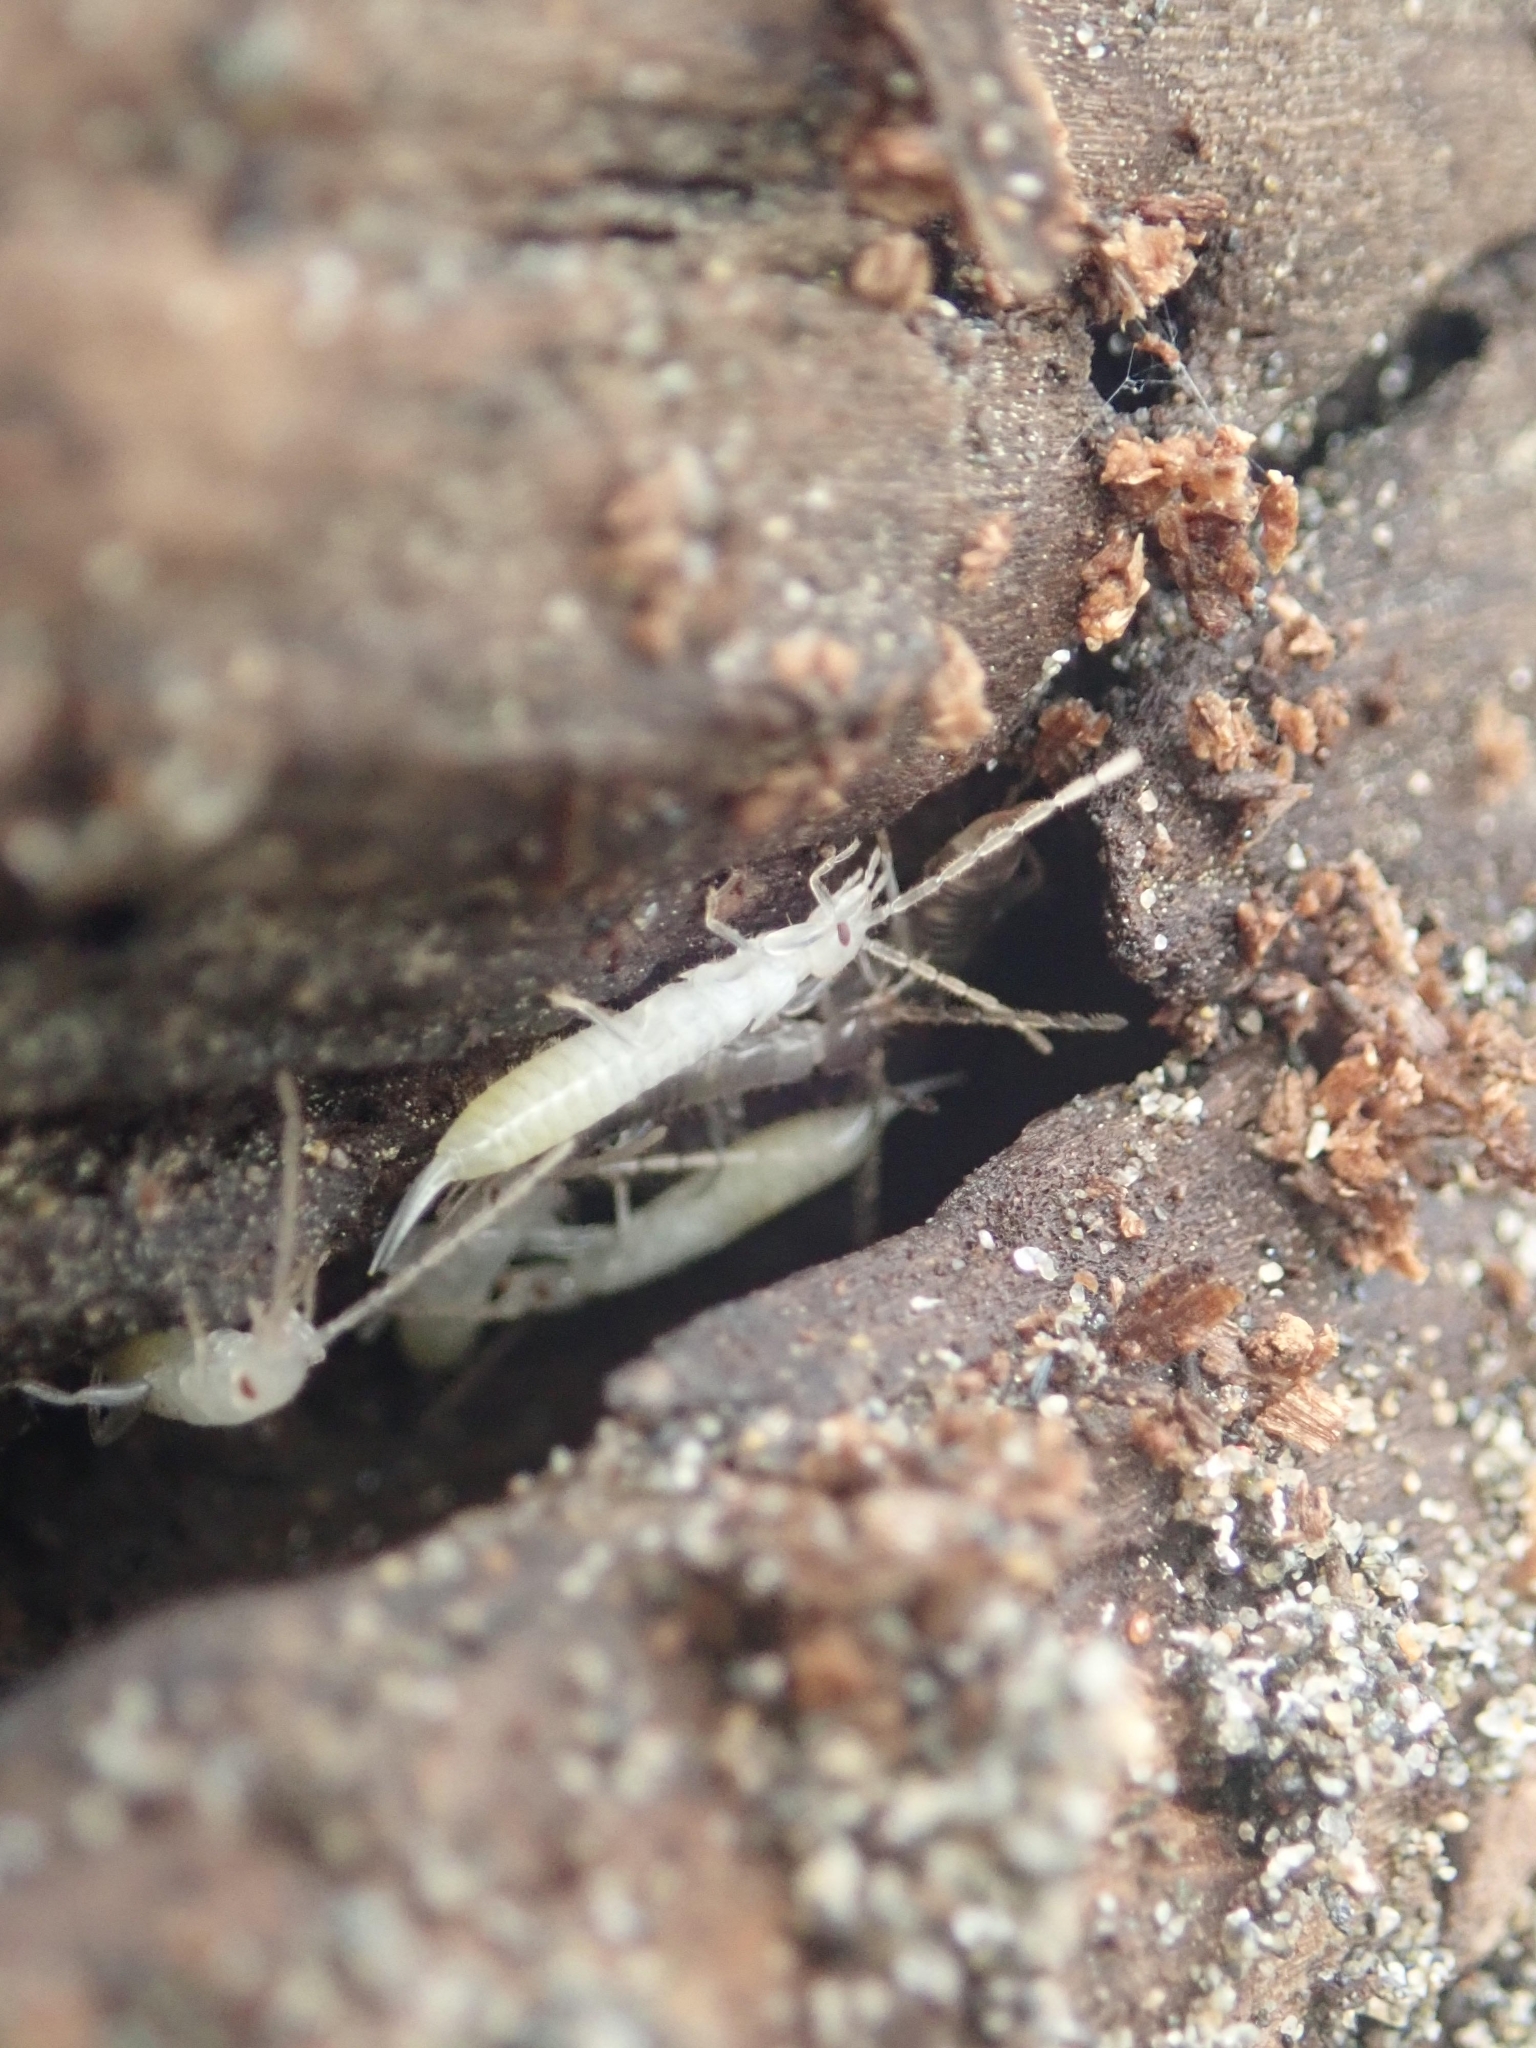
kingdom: Animalia
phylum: Arthropoda
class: Insecta
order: Dermaptera
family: Anisolabididae
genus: Anisolabis
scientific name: Anisolabis littorea
